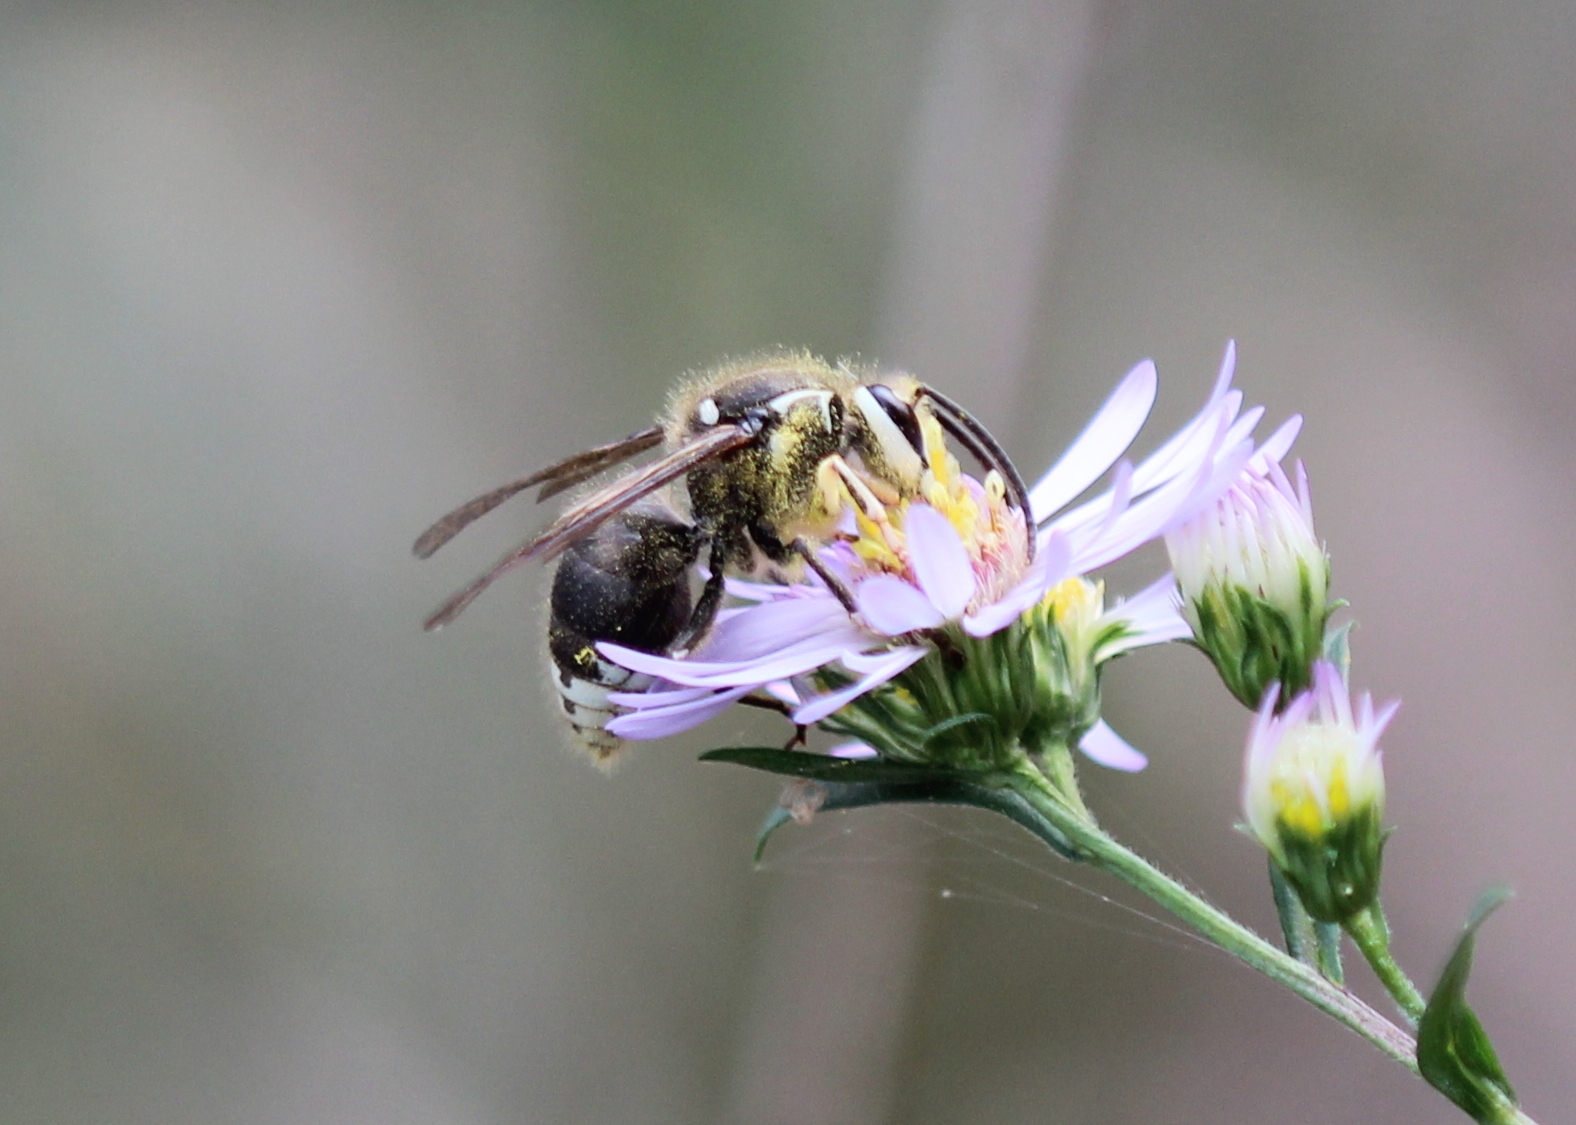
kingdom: Animalia
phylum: Arthropoda
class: Insecta
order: Hymenoptera
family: Vespidae
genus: Dolichovespula
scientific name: Dolichovespula maculata
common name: Bald-faced hornet
